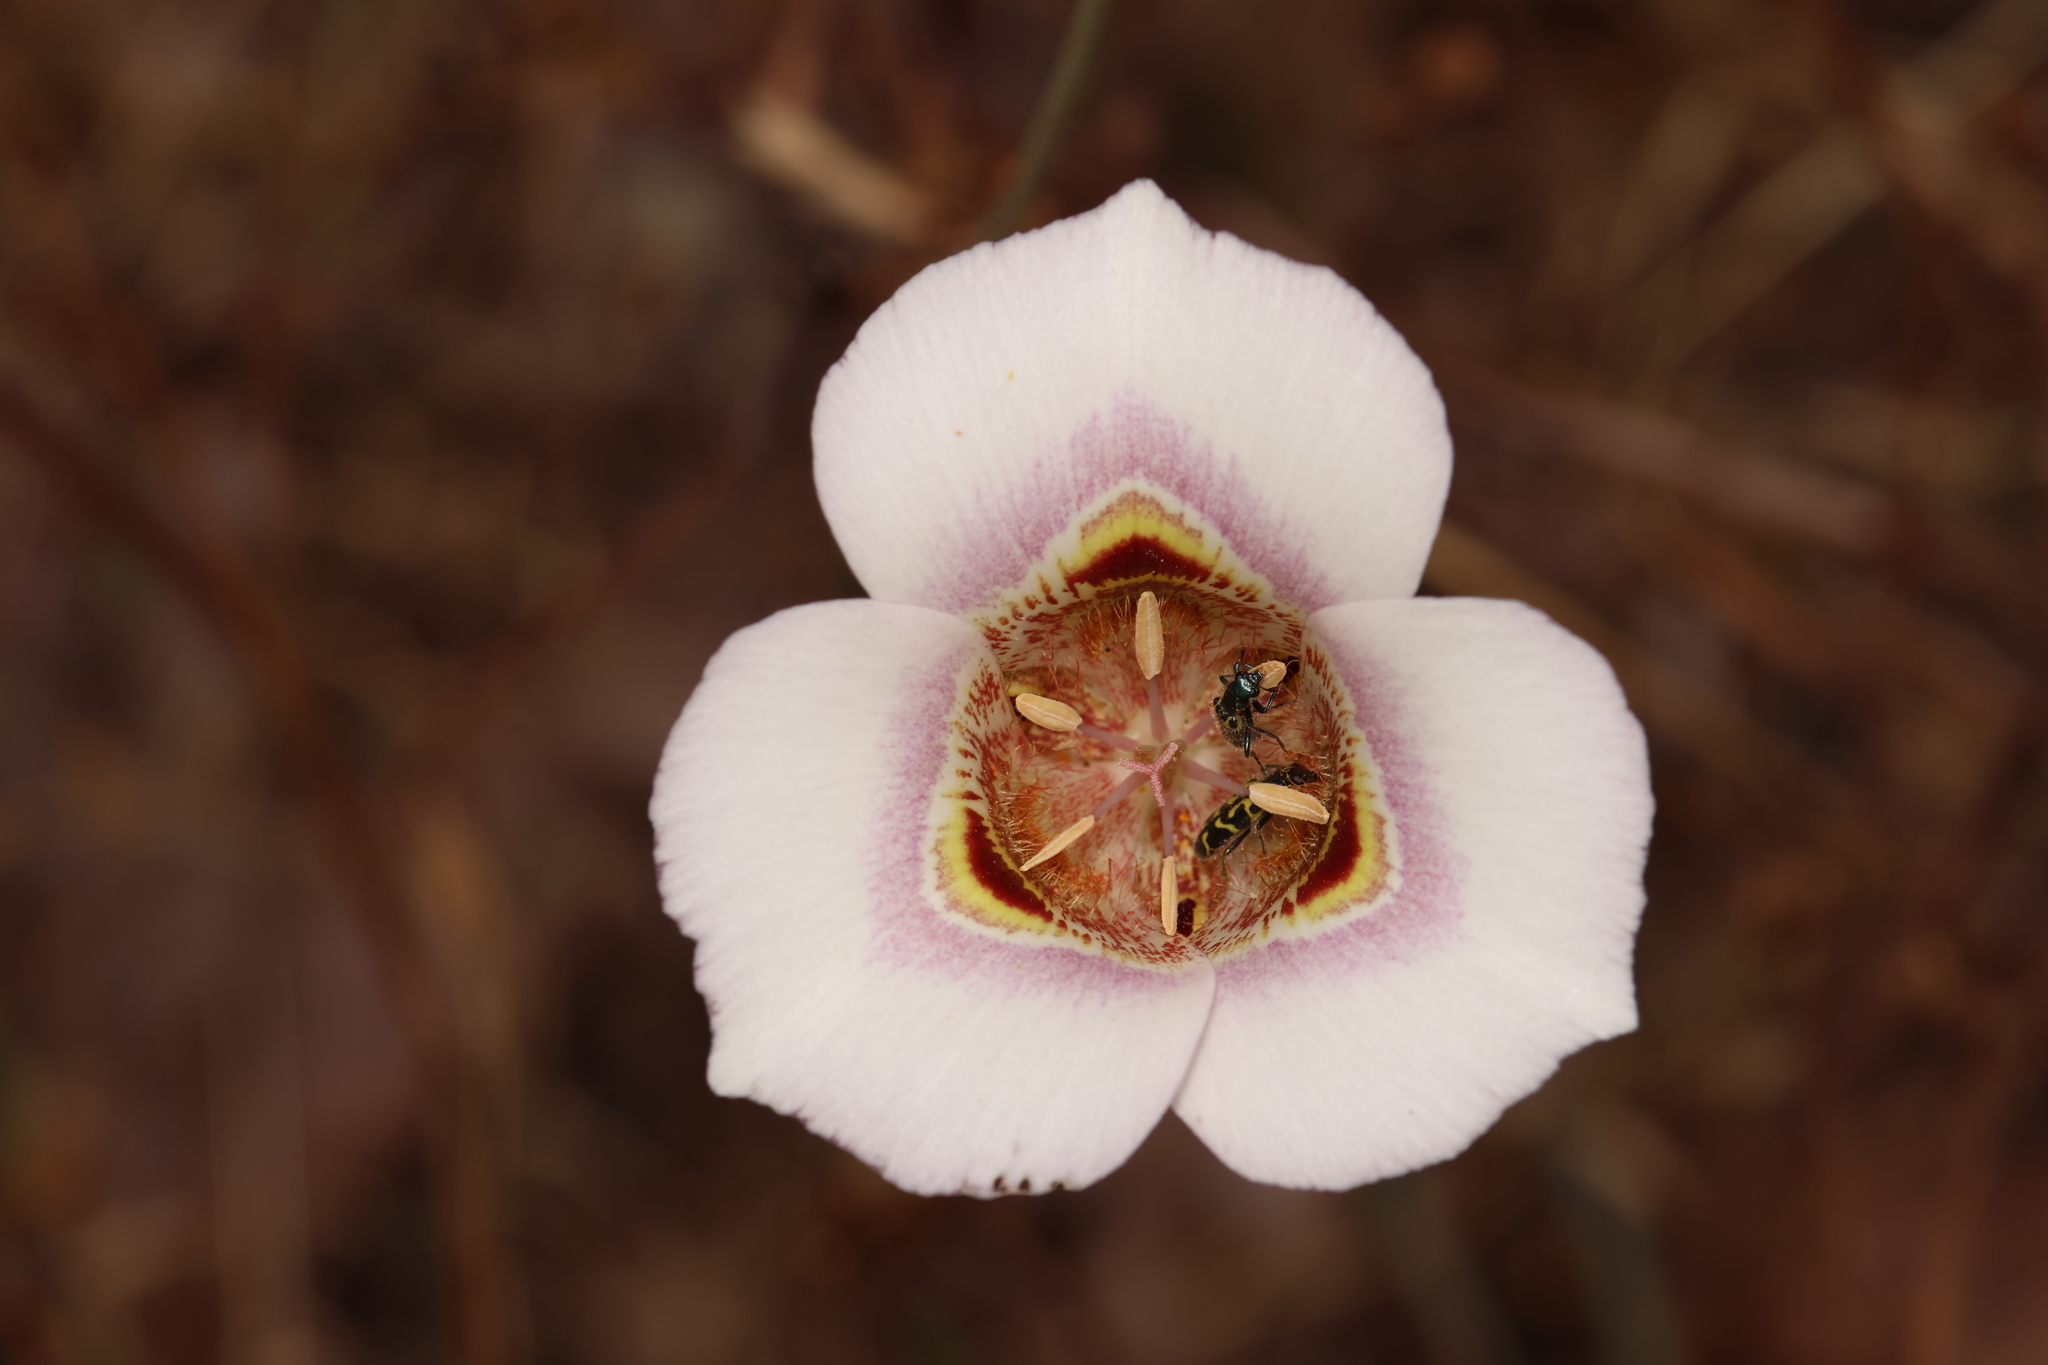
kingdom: Animalia
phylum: Arthropoda
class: Insecta
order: Coleoptera
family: Cleridae
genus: Trichodes
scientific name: Trichodes ornatus
